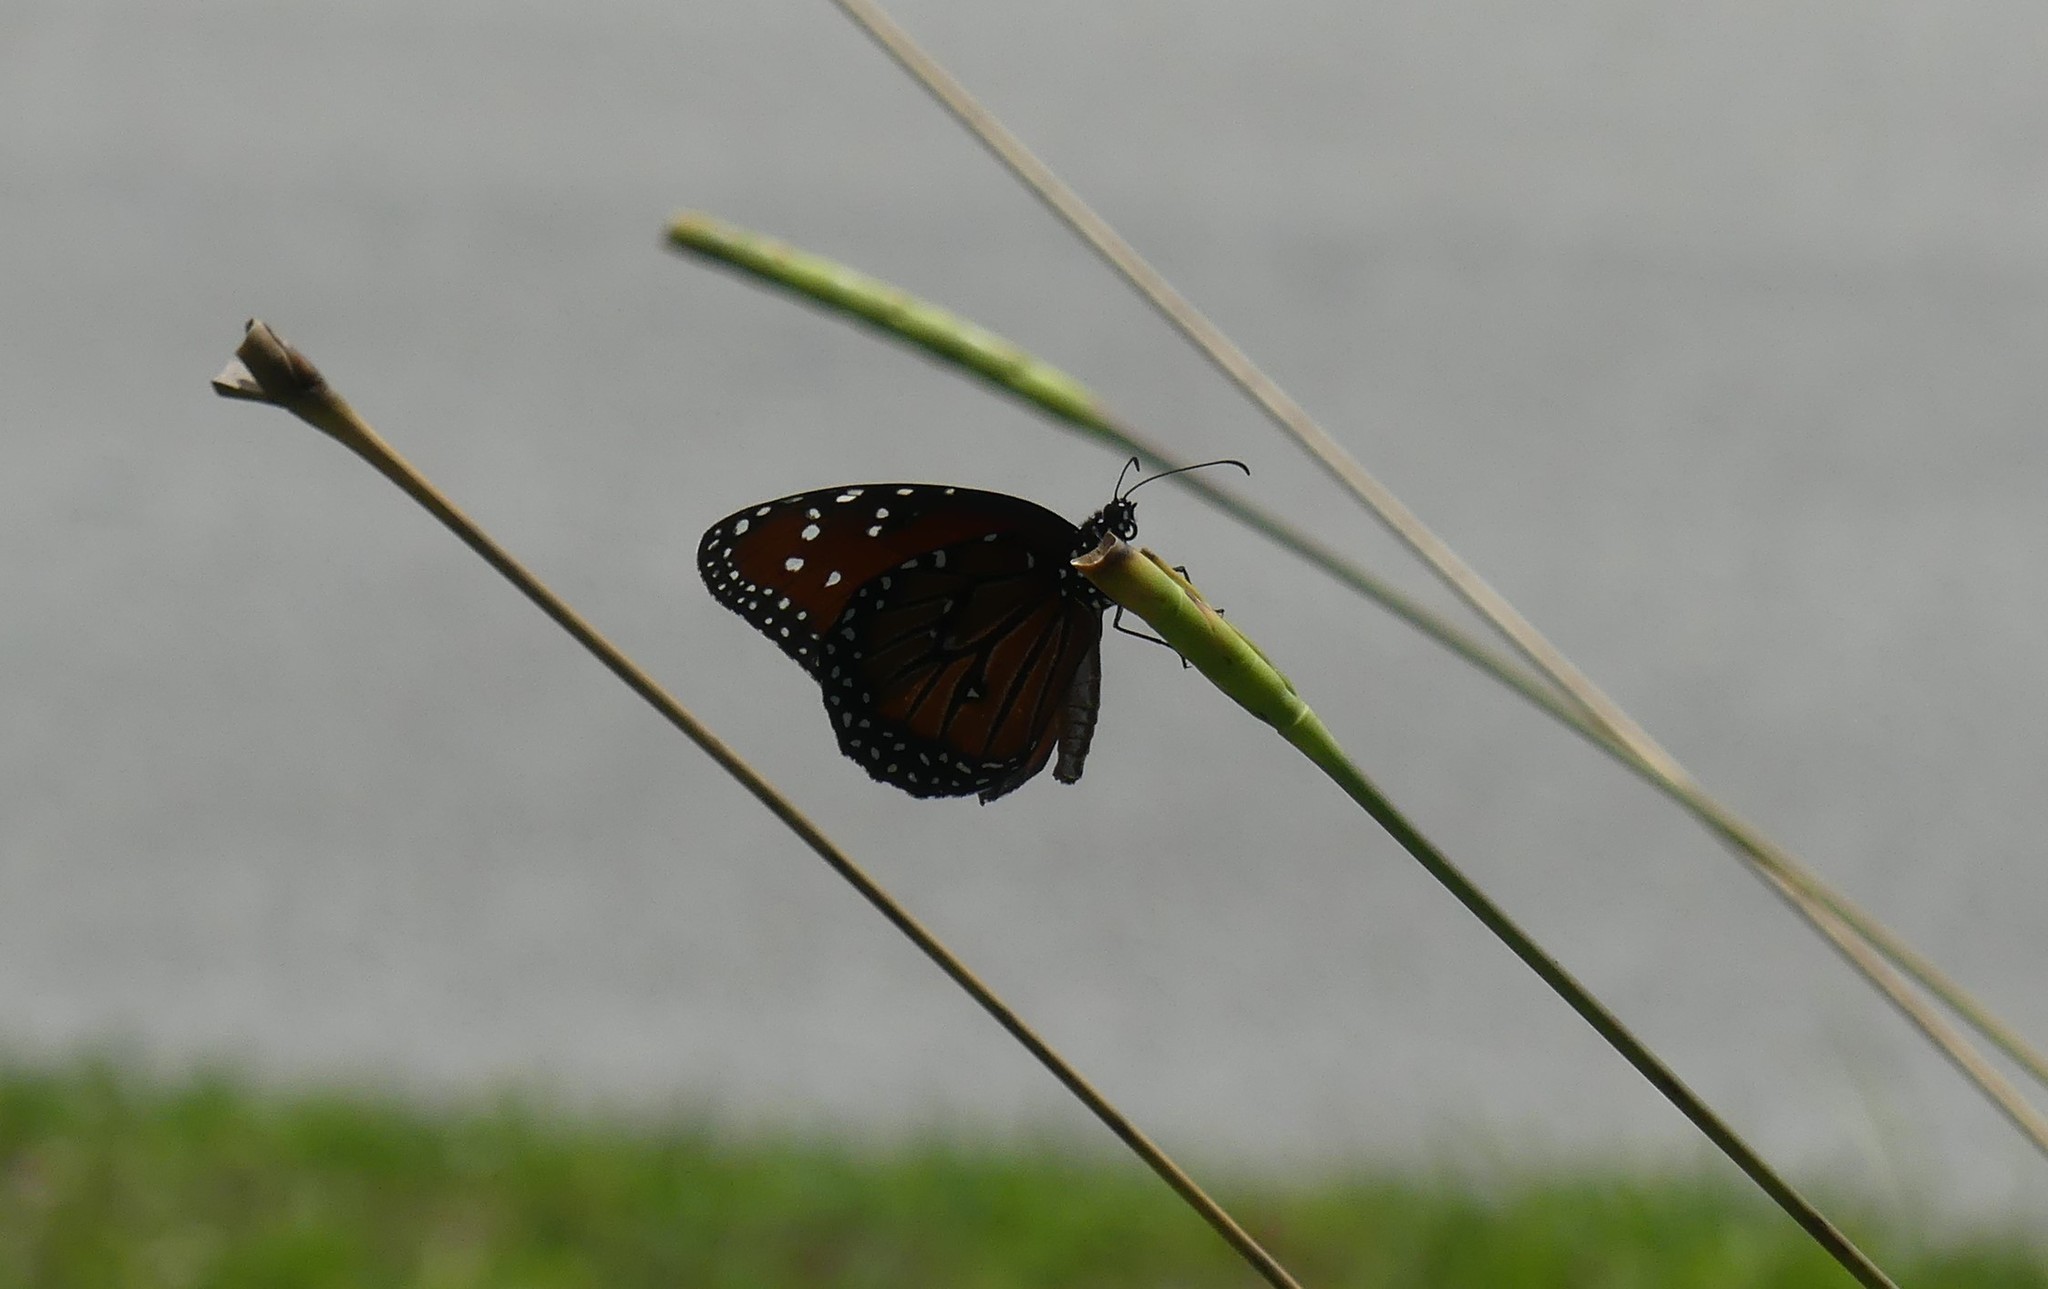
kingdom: Animalia
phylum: Arthropoda
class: Insecta
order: Lepidoptera
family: Nymphalidae
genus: Danaus
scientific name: Danaus gilippus
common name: Queen
